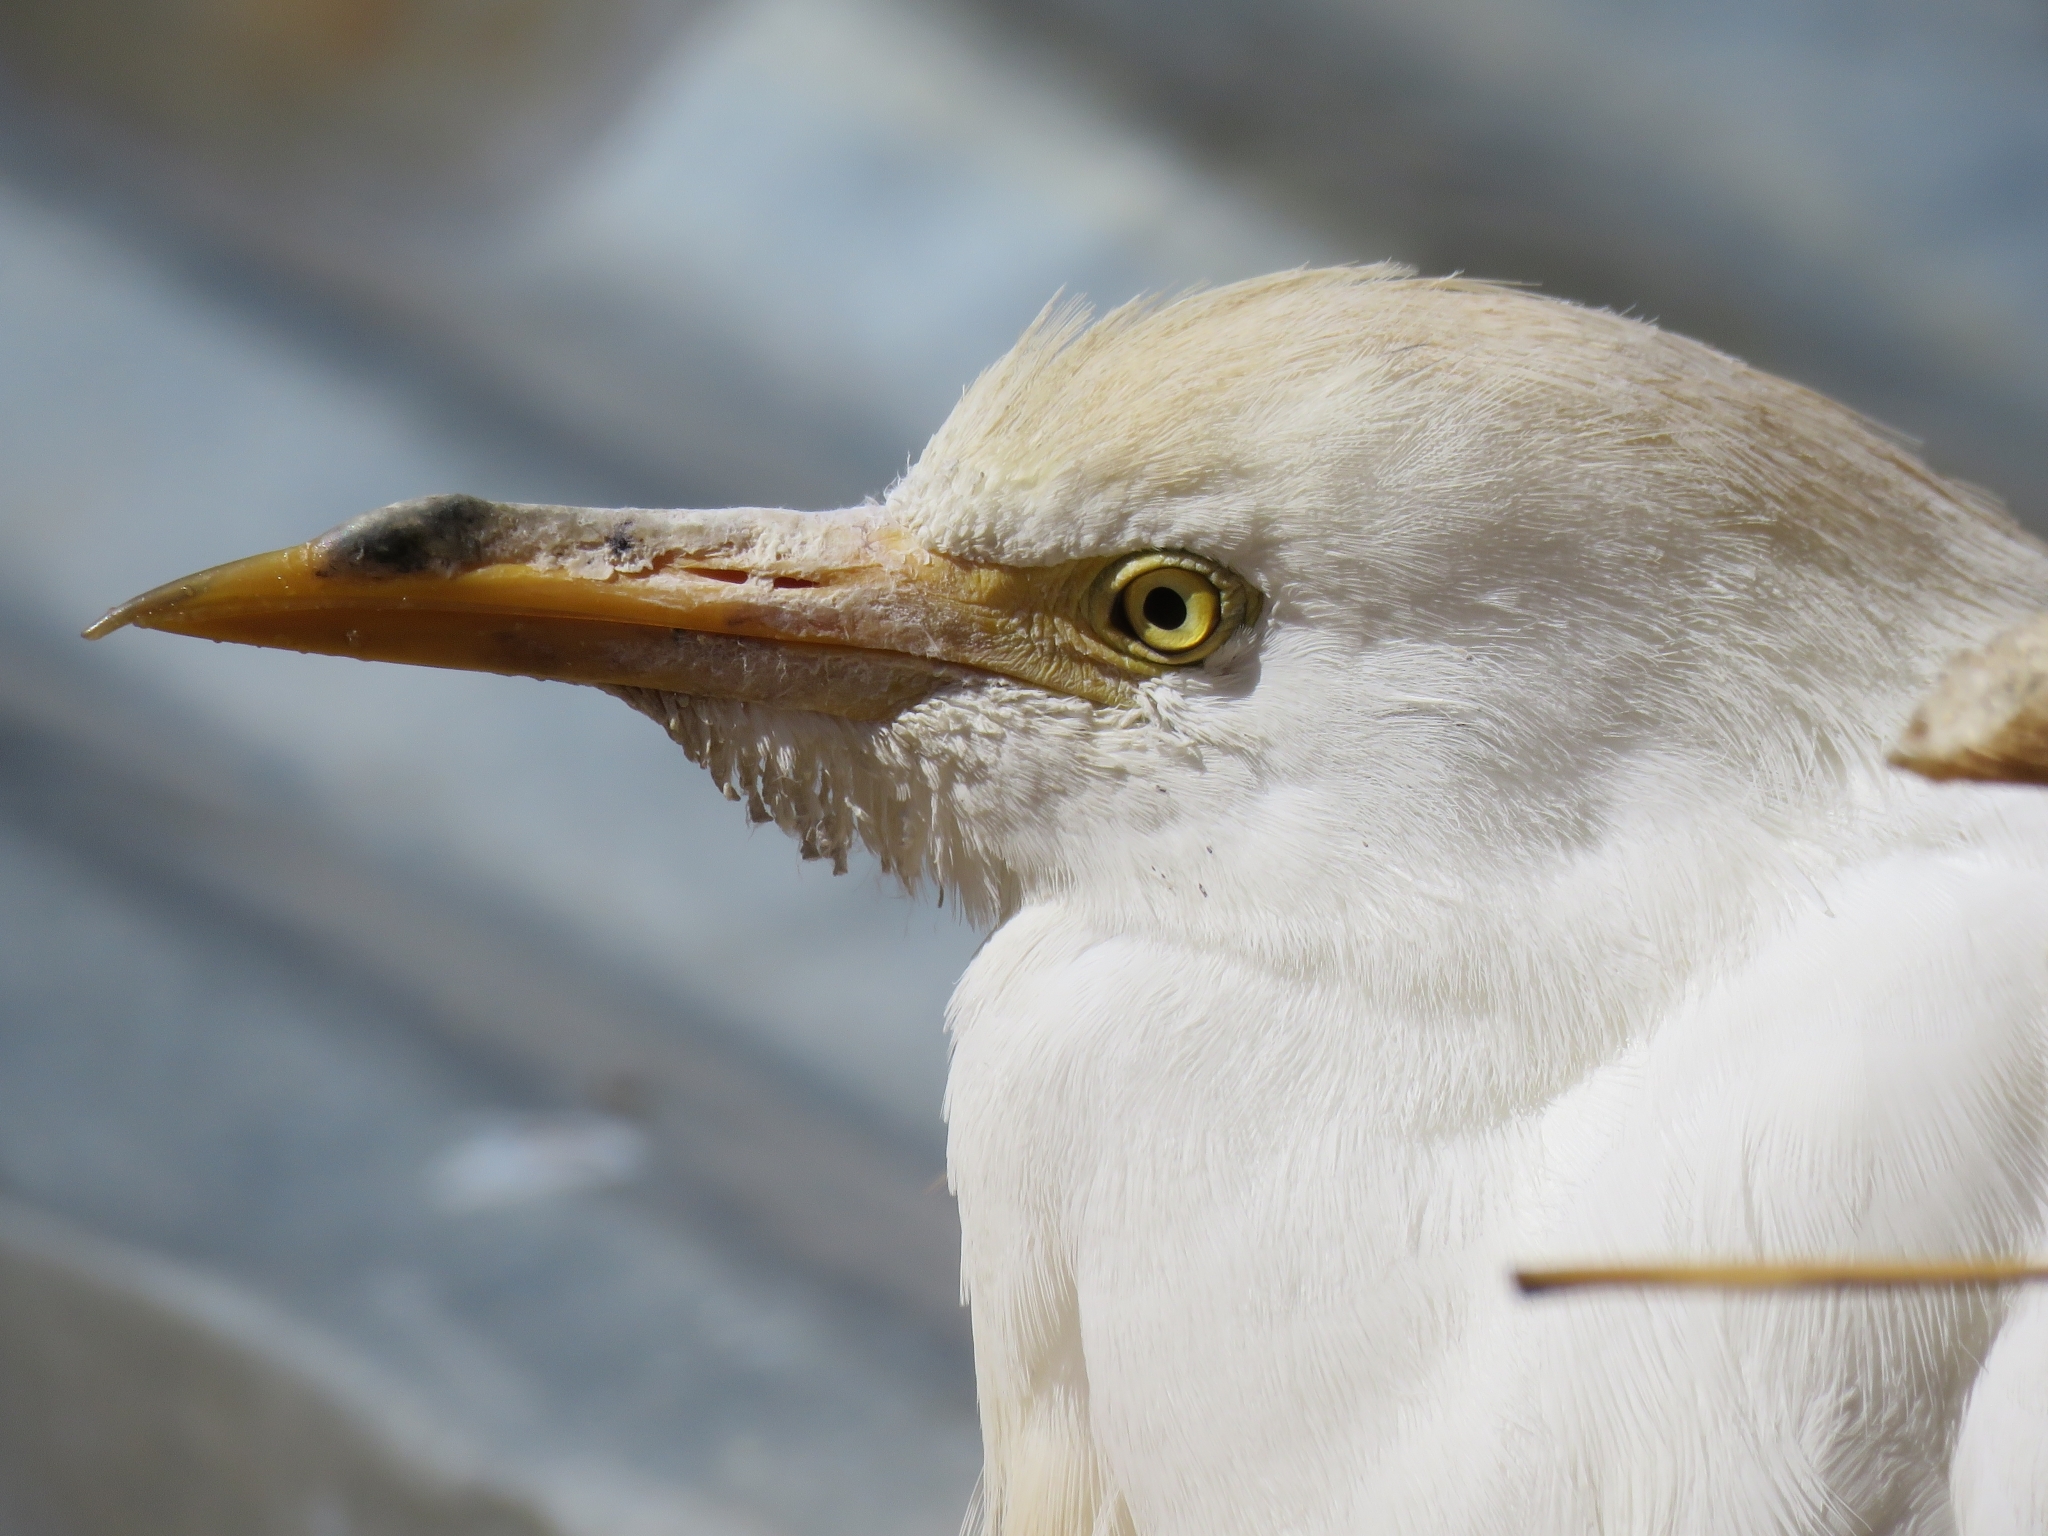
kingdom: Animalia
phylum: Chordata
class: Aves
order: Pelecaniformes
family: Ardeidae
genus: Bubulcus
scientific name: Bubulcus ibis
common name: Cattle egret
